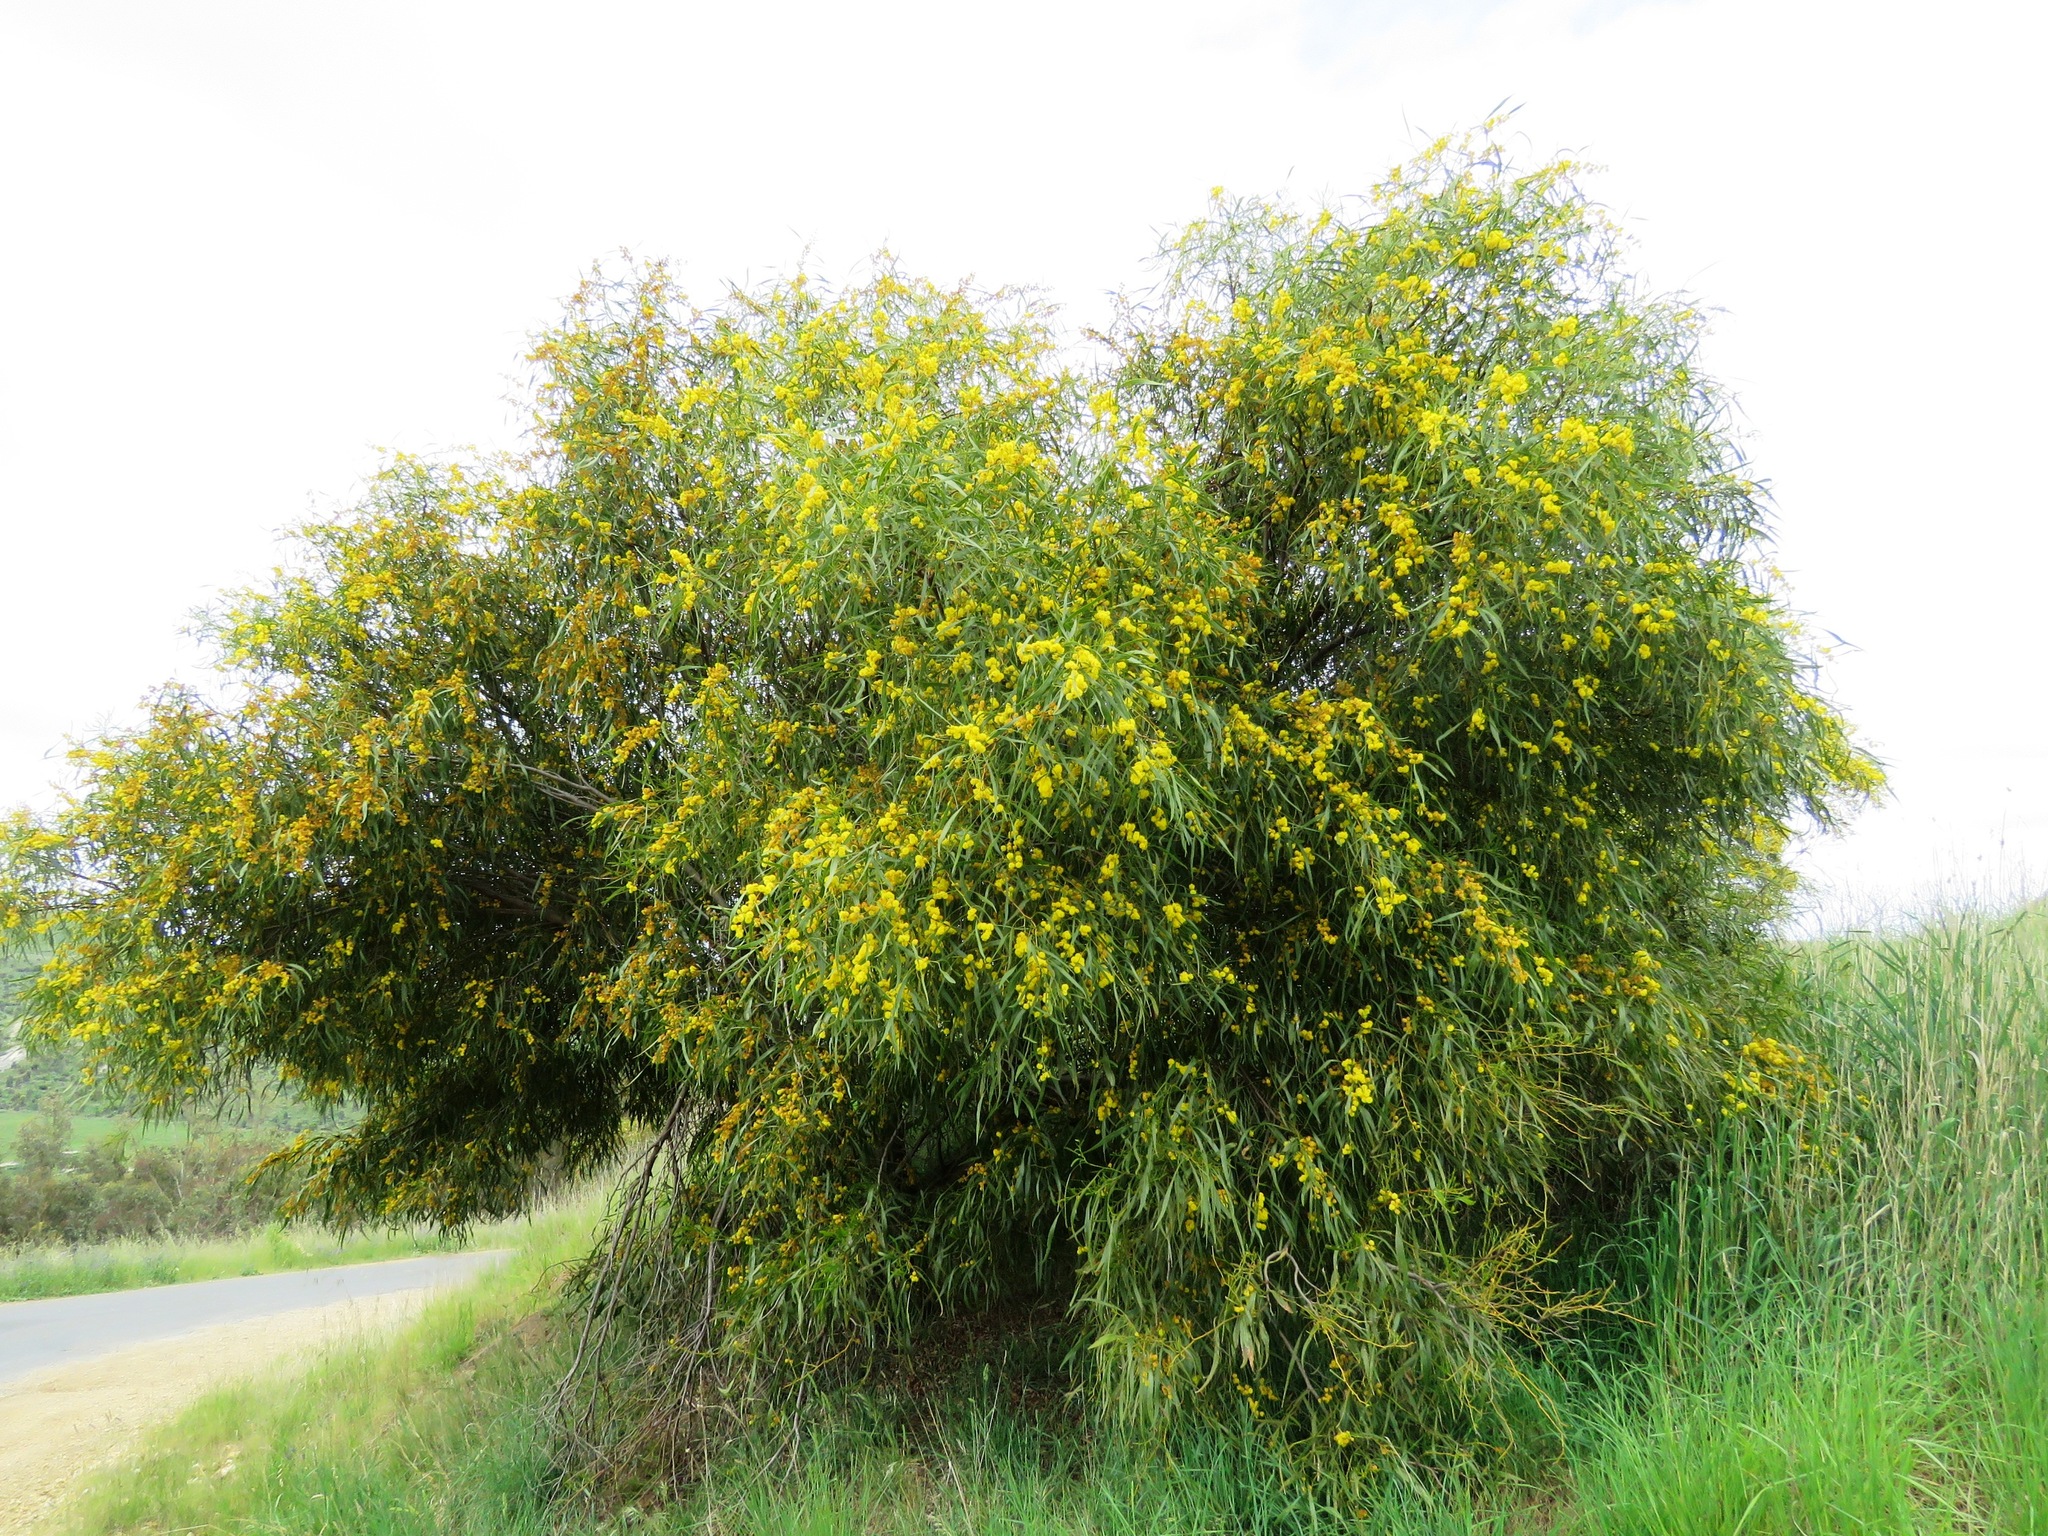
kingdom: Plantae
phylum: Tracheophyta
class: Magnoliopsida
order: Fabales
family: Fabaceae
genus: Acacia
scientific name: Acacia saligna
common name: Orange wattle
